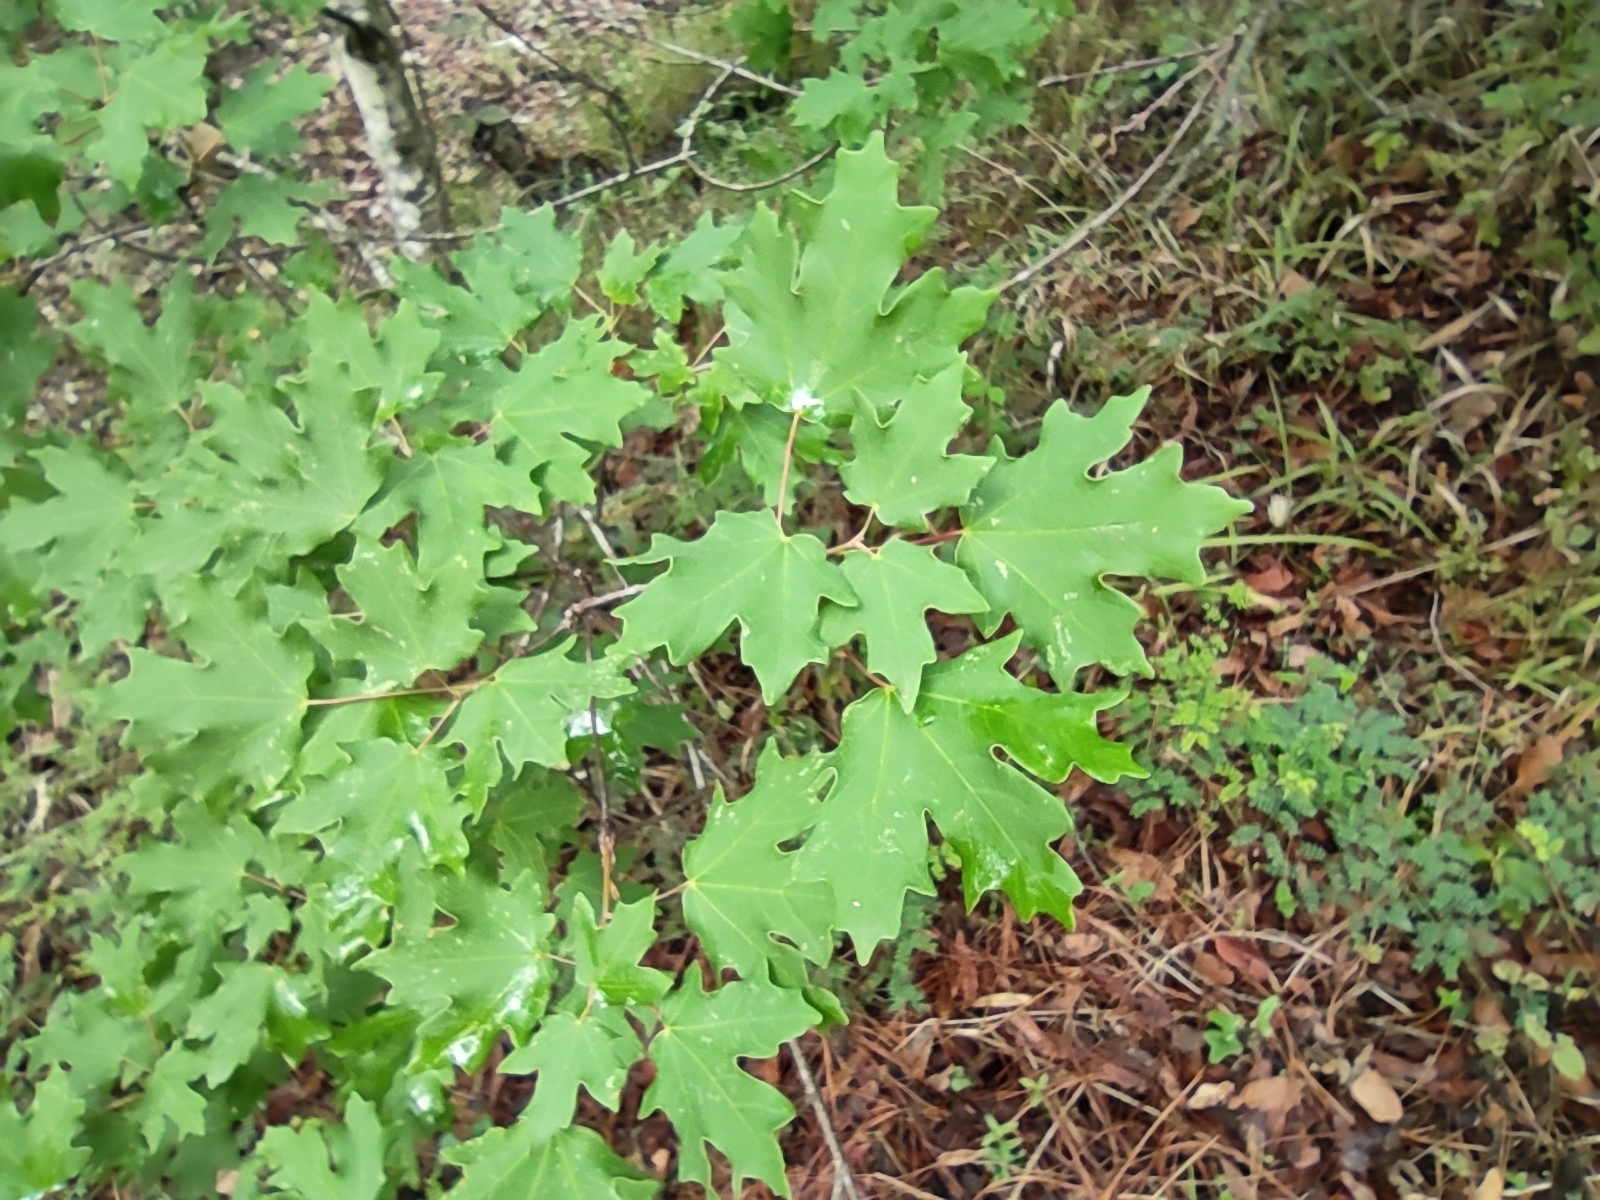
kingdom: Plantae
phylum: Tracheophyta
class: Magnoliopsida
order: Sapindales
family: Sapindaceae
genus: Acer
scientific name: Acer grandidentatum
